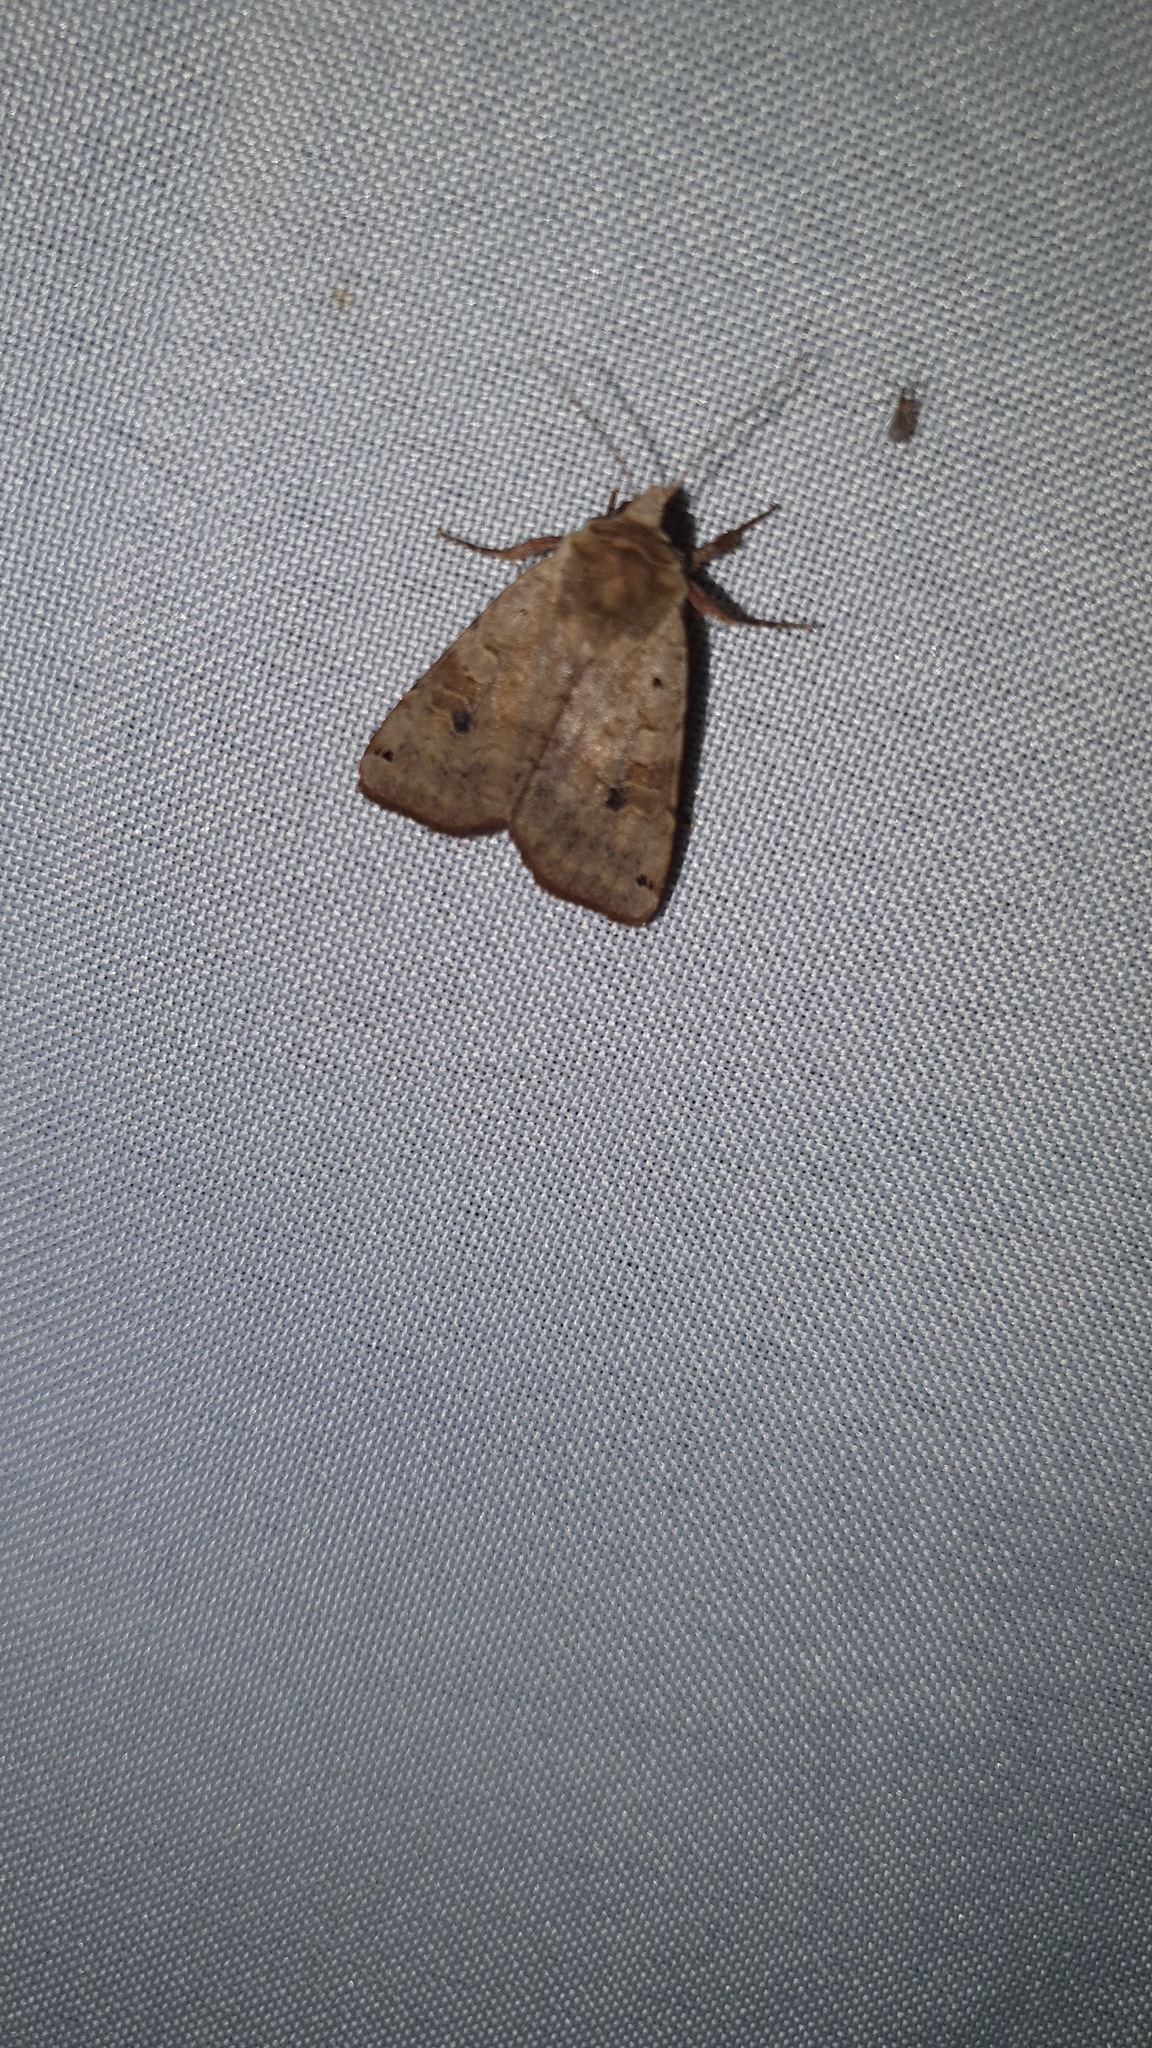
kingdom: Animalia
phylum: Arthropoda
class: Insecta
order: Lepidoptera
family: Noctuidae
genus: Xestia
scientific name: Xestia baja
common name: Dotted clay
